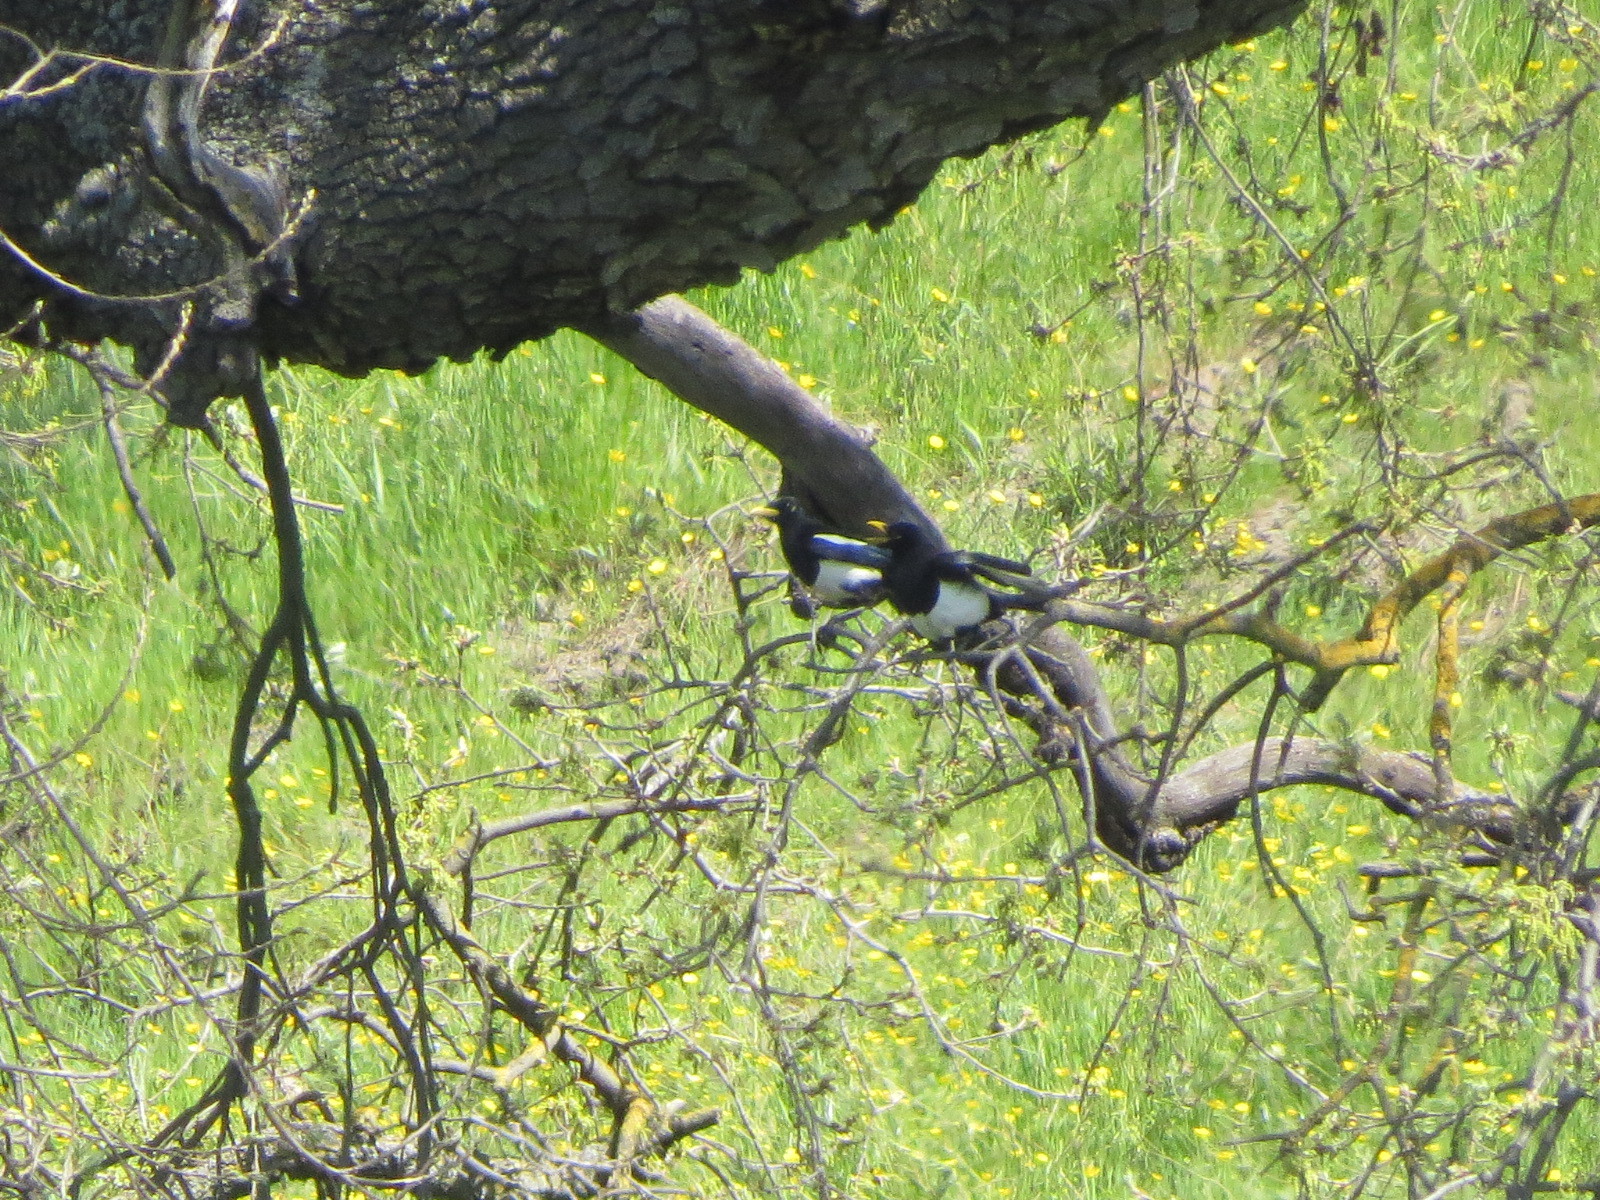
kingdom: Animalia
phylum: Chordata
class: Aves
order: Passeriformes
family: Corvidae
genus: Pica
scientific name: Pica nuttalli
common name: Yellow-billed magpie
